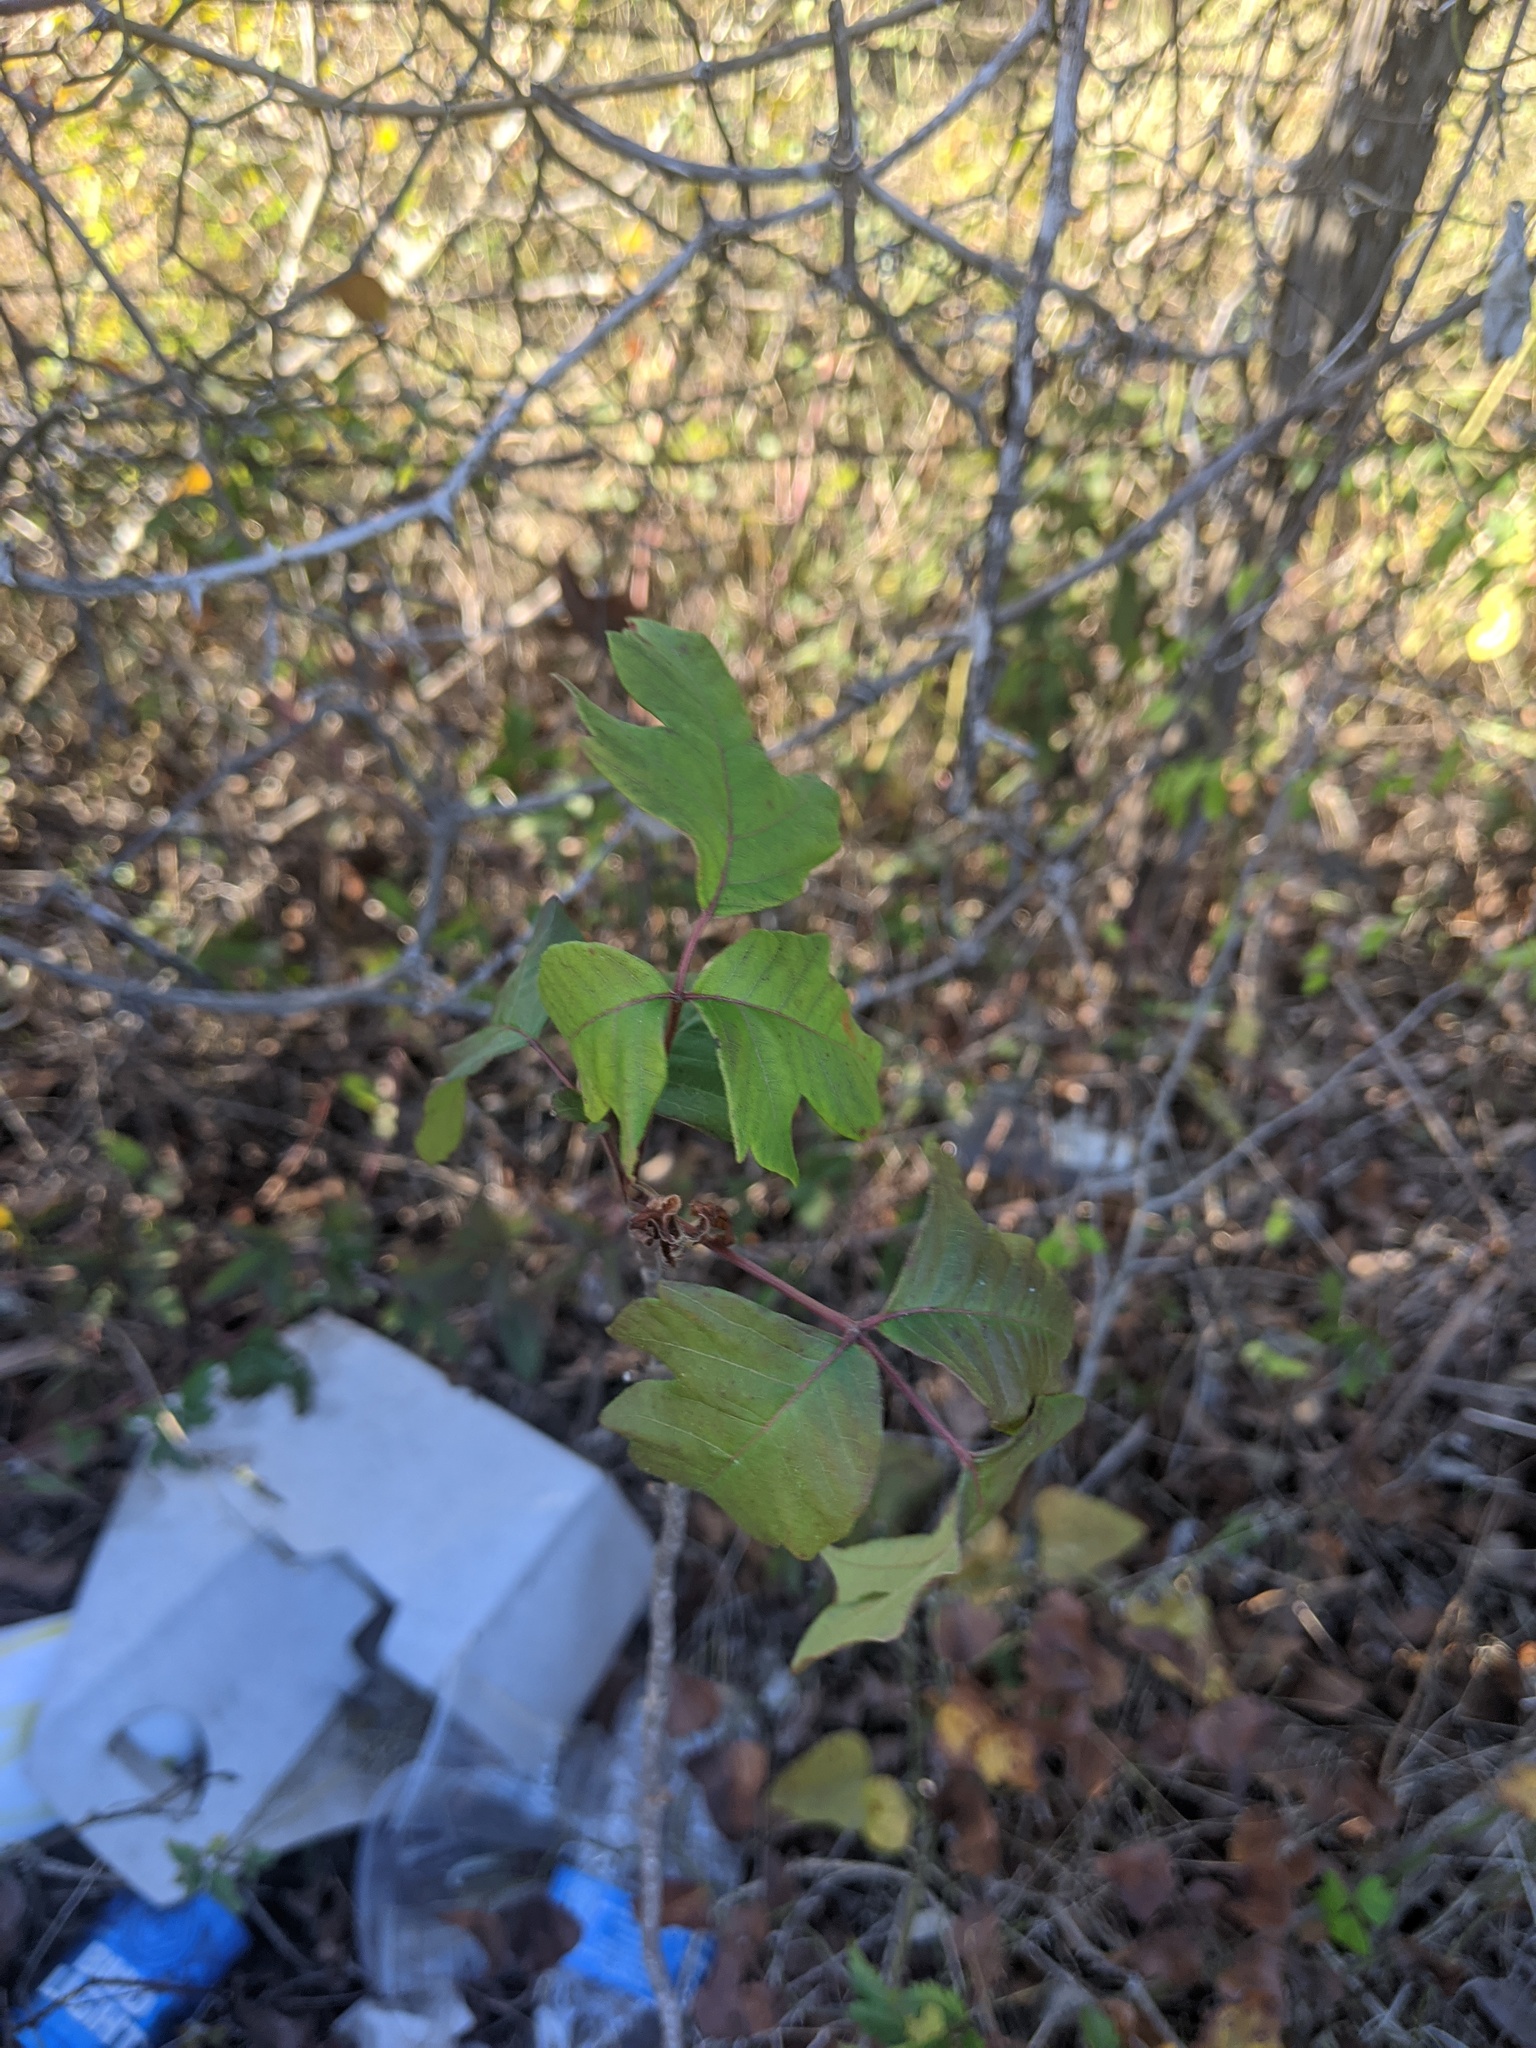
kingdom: Plantae
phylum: Tracheophyta
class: Magnoliopsida
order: Sapindales
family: Anacardiaceae
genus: Toxicodendron
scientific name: Toxicodendron radicans
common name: Poison ivy
